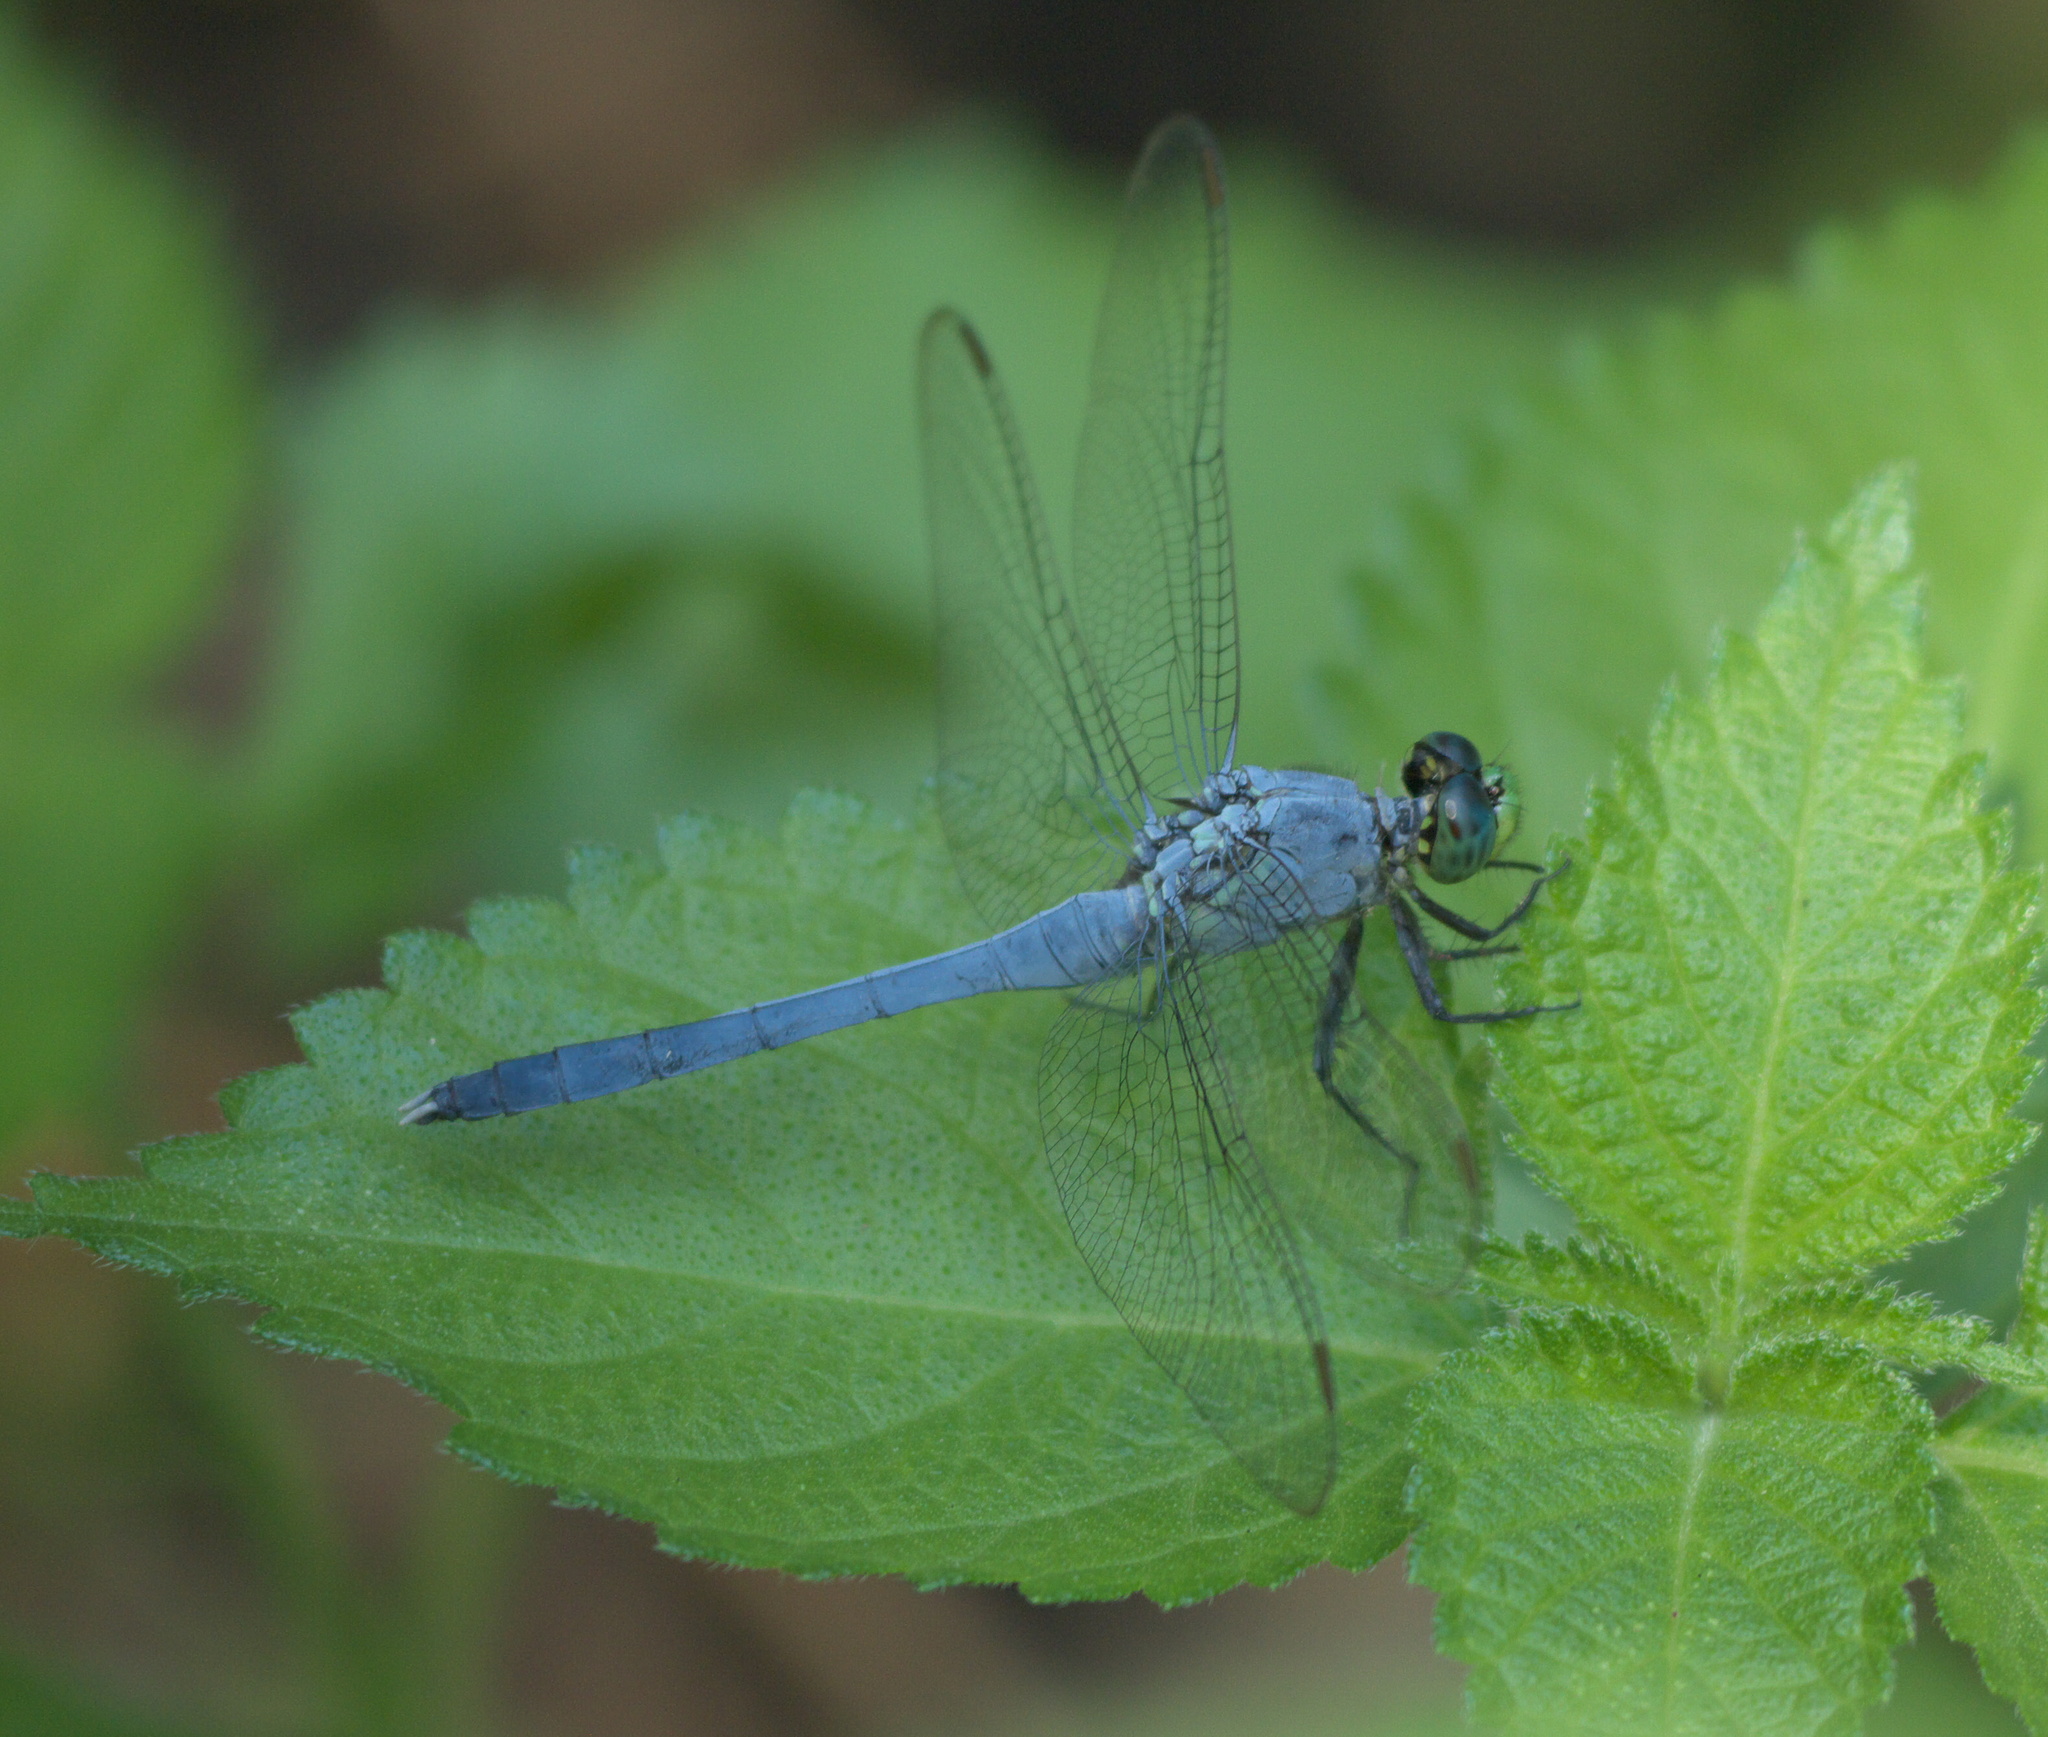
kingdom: Animalia
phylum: Arthropoda
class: Insecta
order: Odonata
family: Libellulidae
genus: Erythemis
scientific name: Erythemis simplicicollis
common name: Eastern pondhawk
